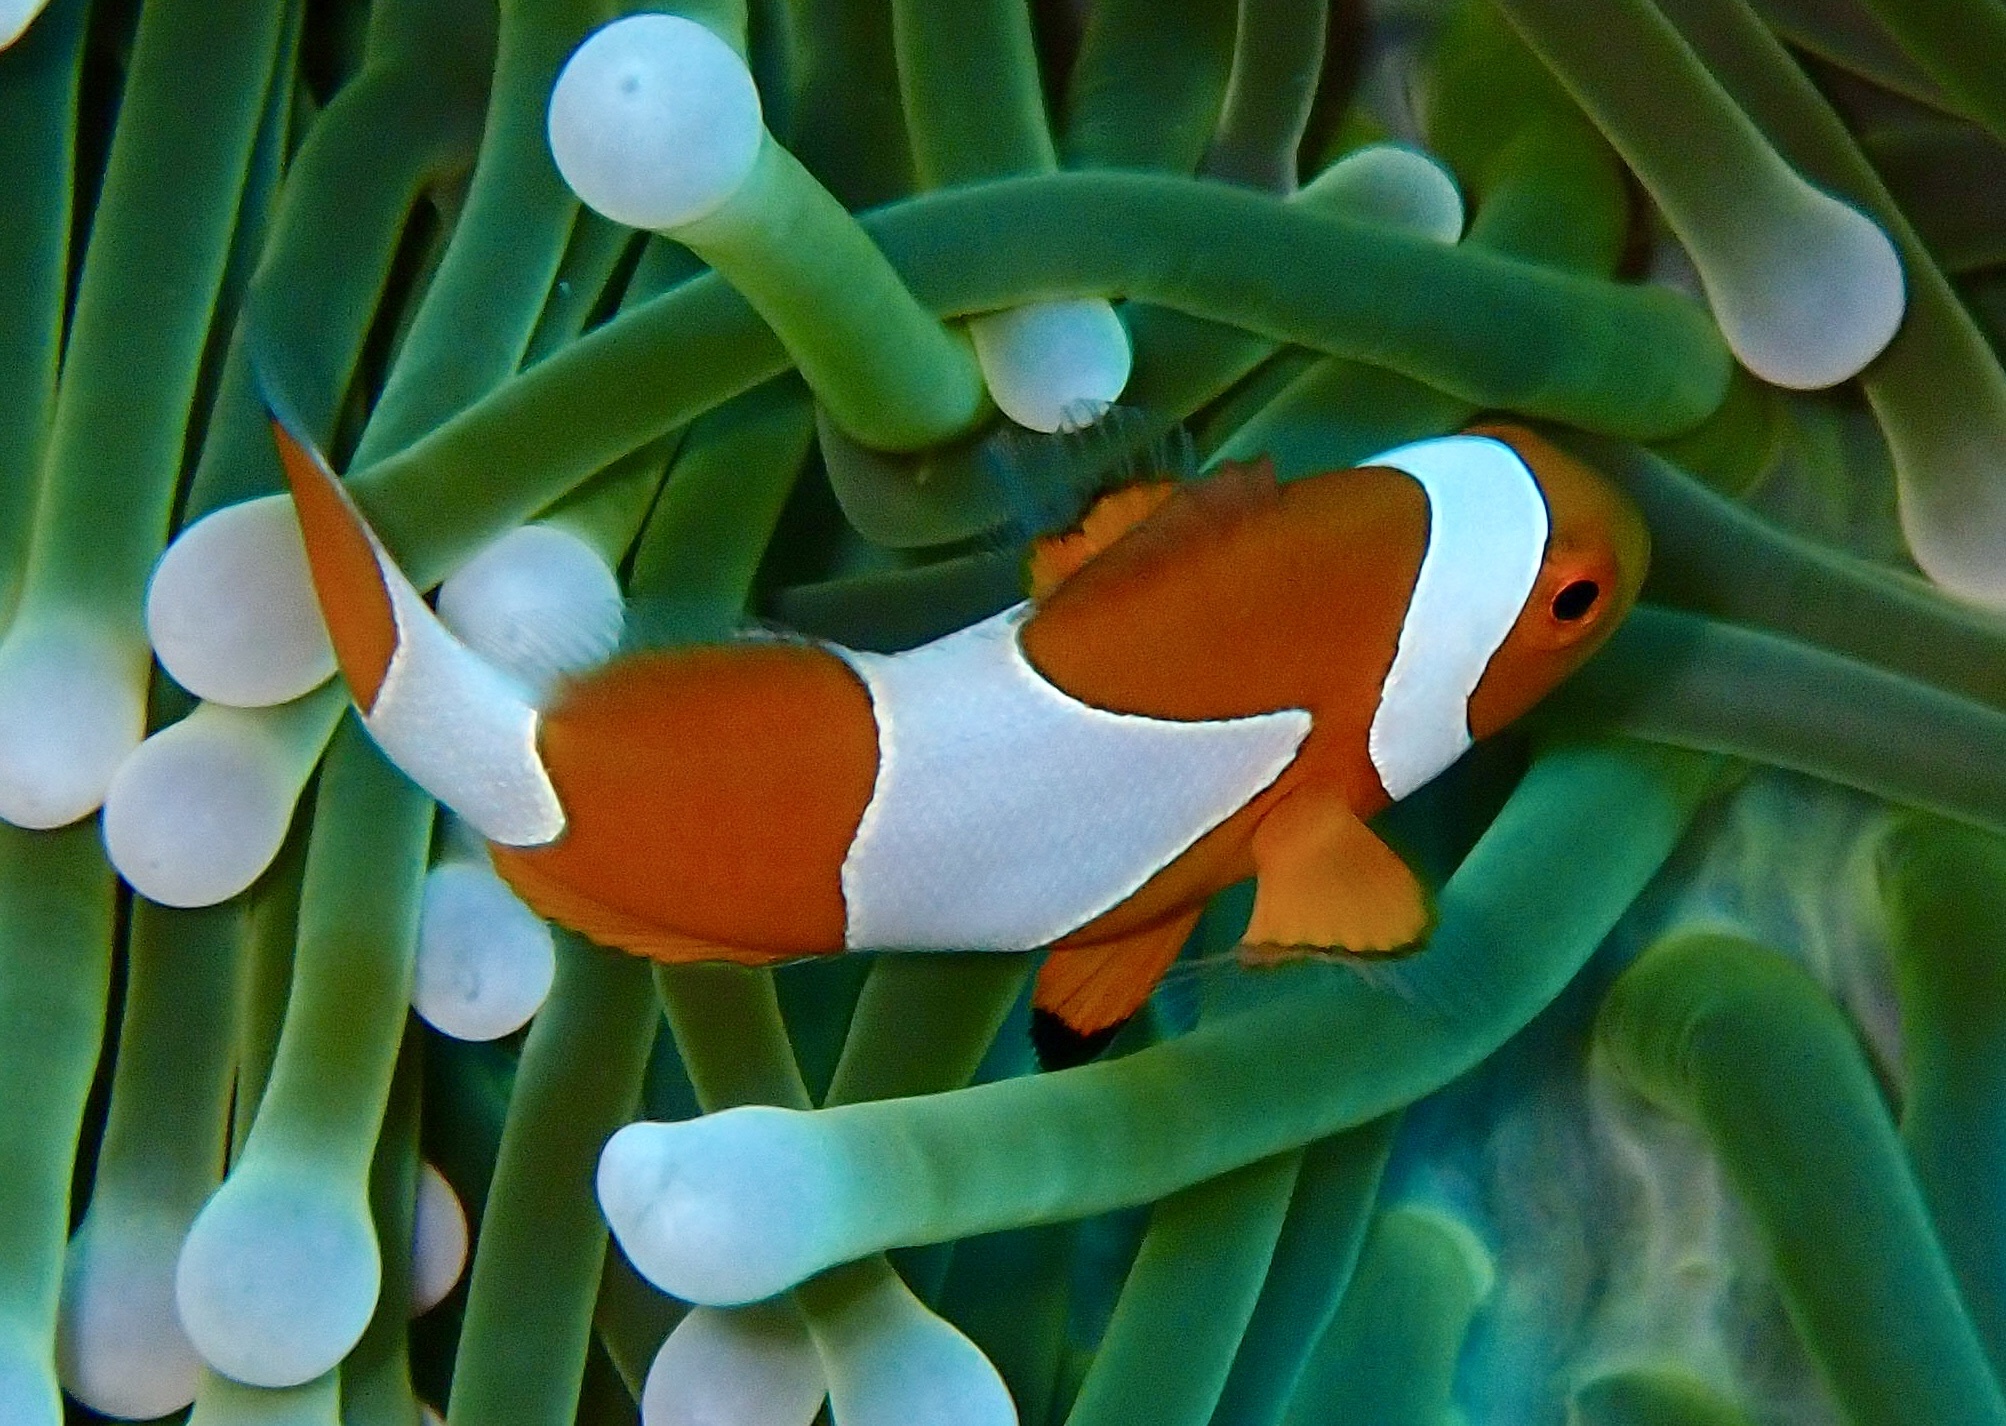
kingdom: Animalia
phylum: Chordata
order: Perciformes
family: Pomacentridae
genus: Amphiprion
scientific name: Amphiprion ocellaris
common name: Clown anemonefish
